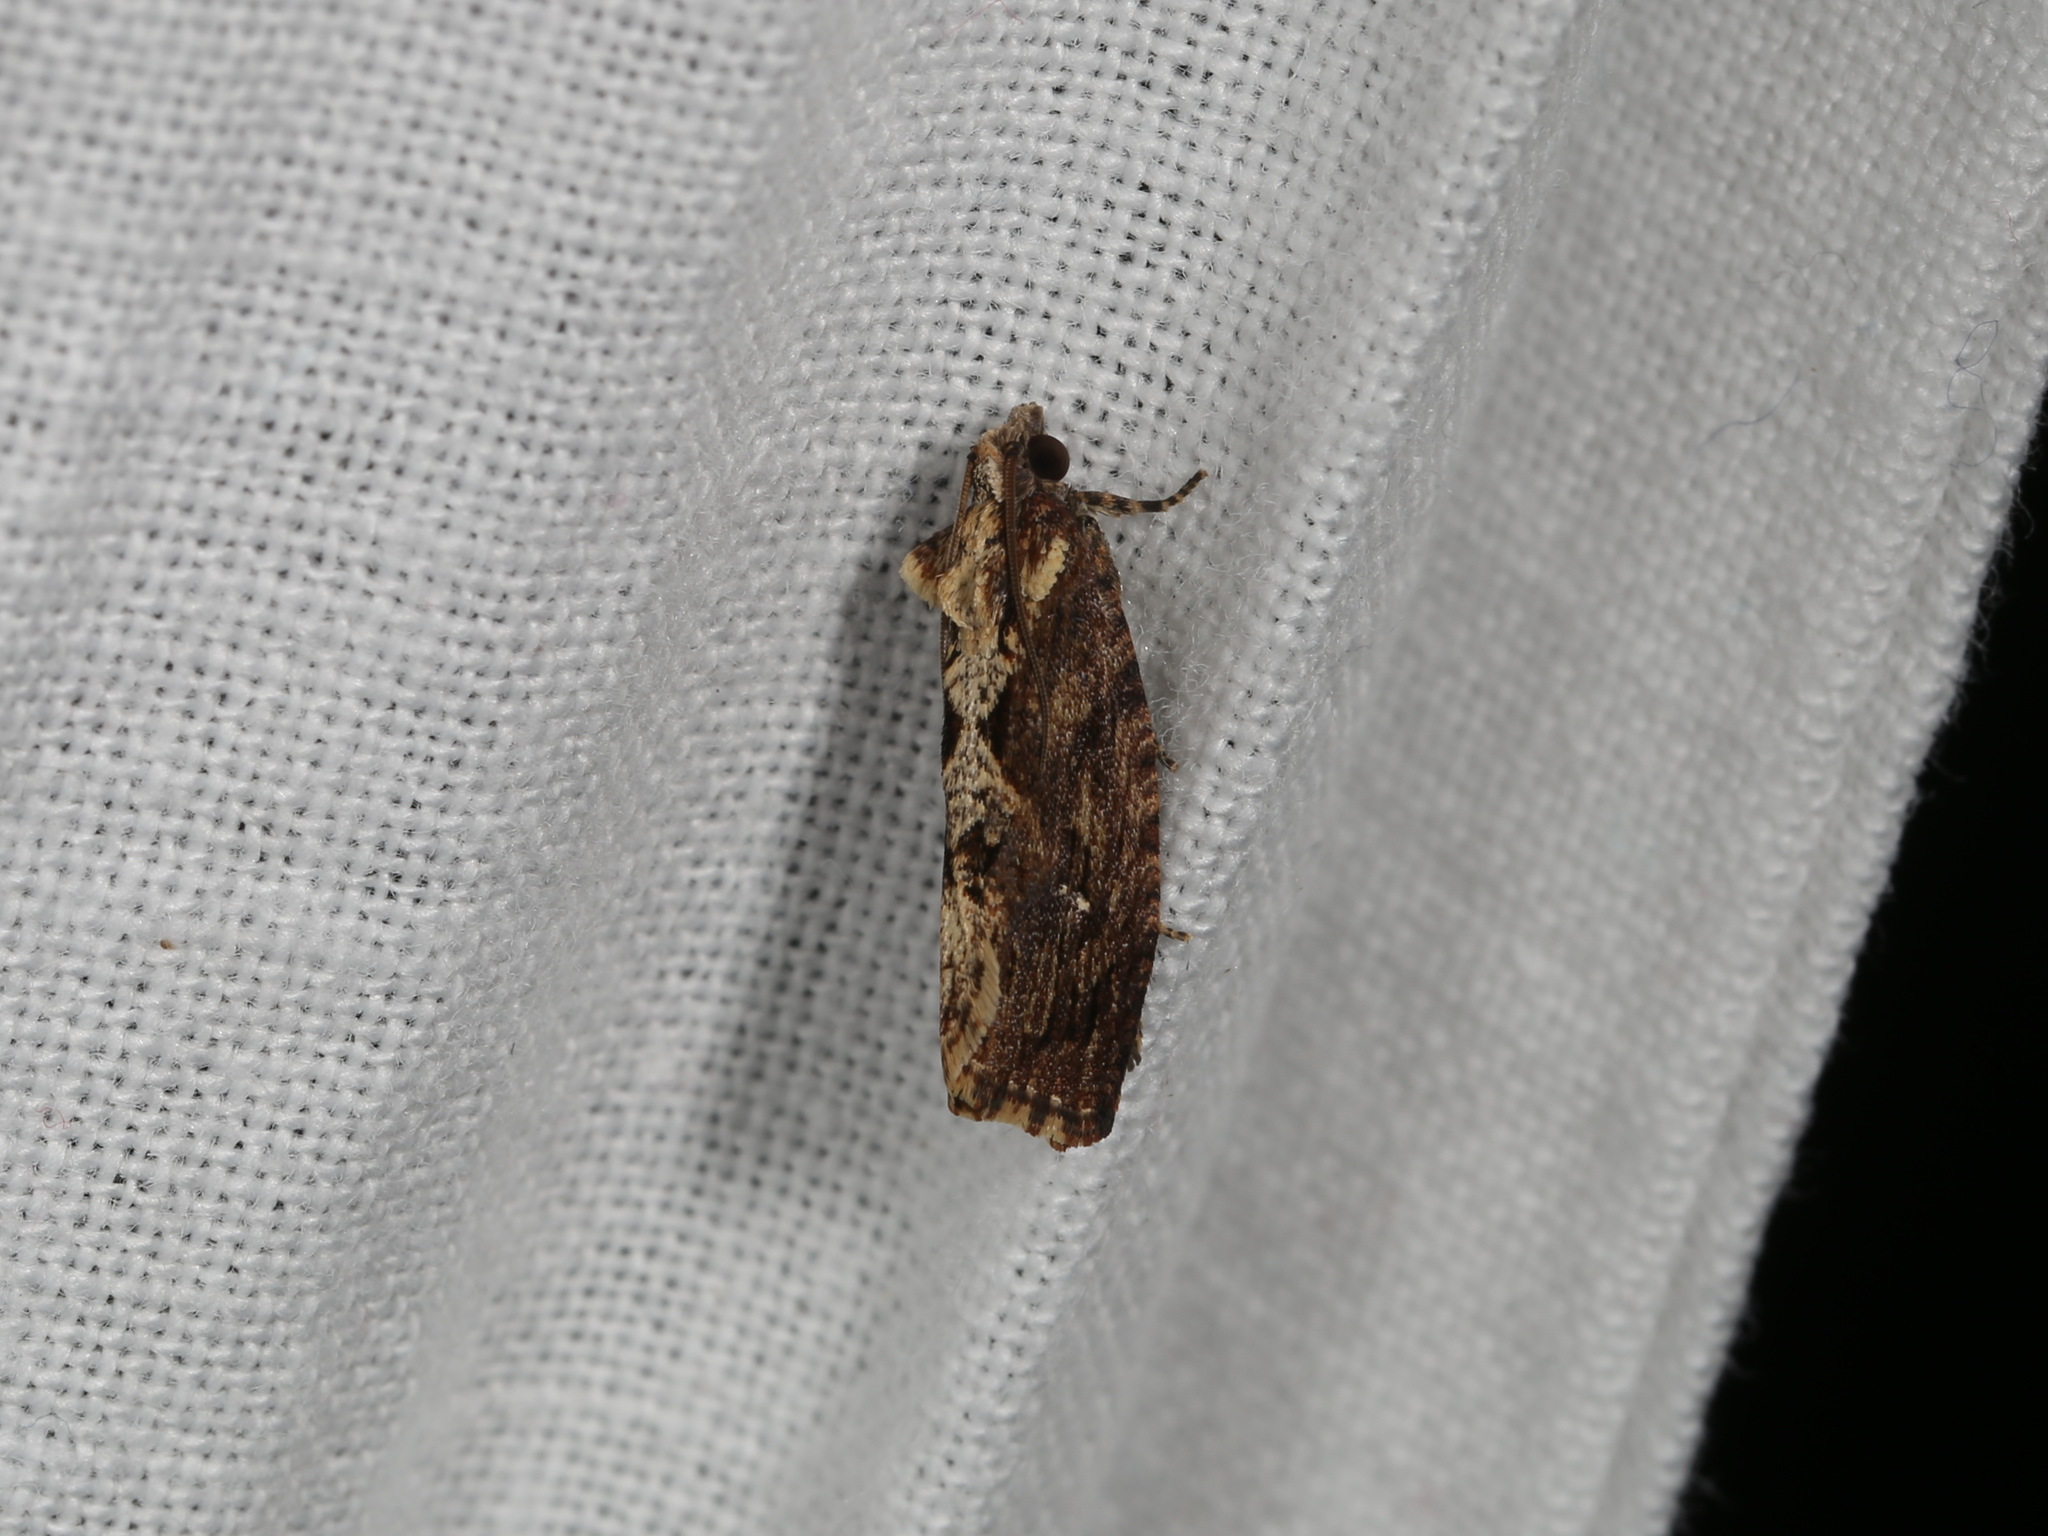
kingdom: Animalia
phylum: Arthropoda
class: Insecta
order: Lepidoptera
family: Tortricidae
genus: Oxysemaphora
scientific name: Oxysemaphora notialis
